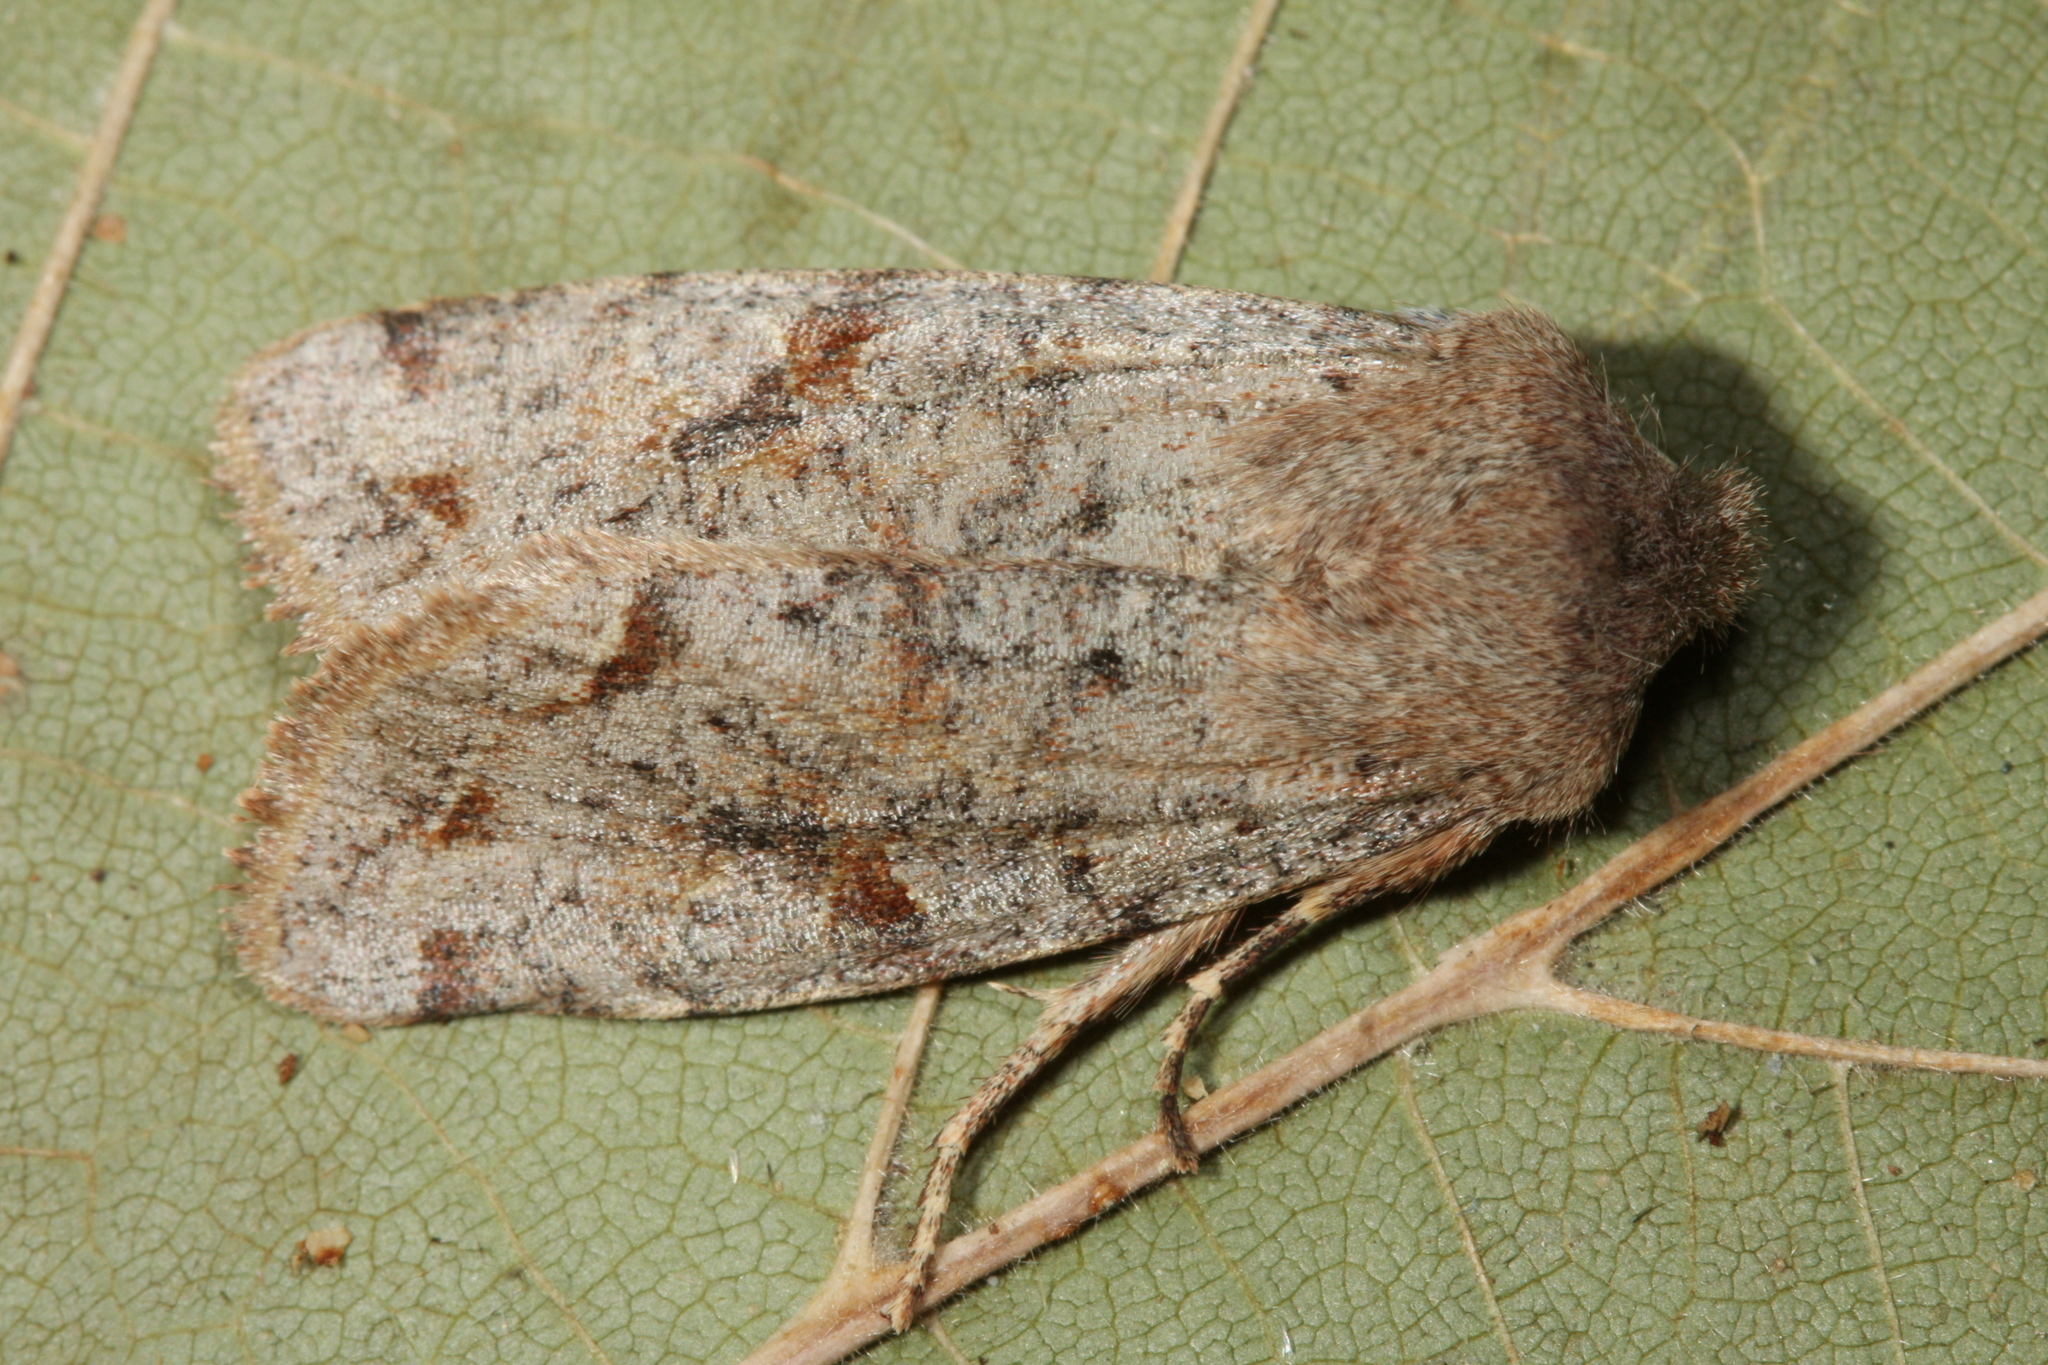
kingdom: Animalia
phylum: Arthropoda
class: Insecta
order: Lepidoptera
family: Noctuidae
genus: Orthosia
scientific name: Orthosia incerta
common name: Clouded drab
